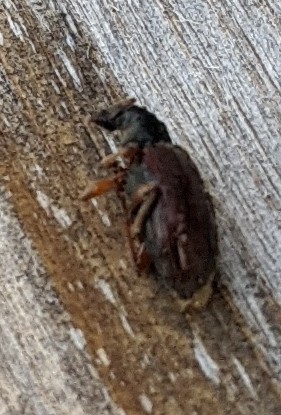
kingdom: Animalia
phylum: Arthropoda
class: Insecta
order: Coleoptera
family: Curculionidae
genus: Phyllobius
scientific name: Phyllobius oblongus
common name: Brown leaf weevil
